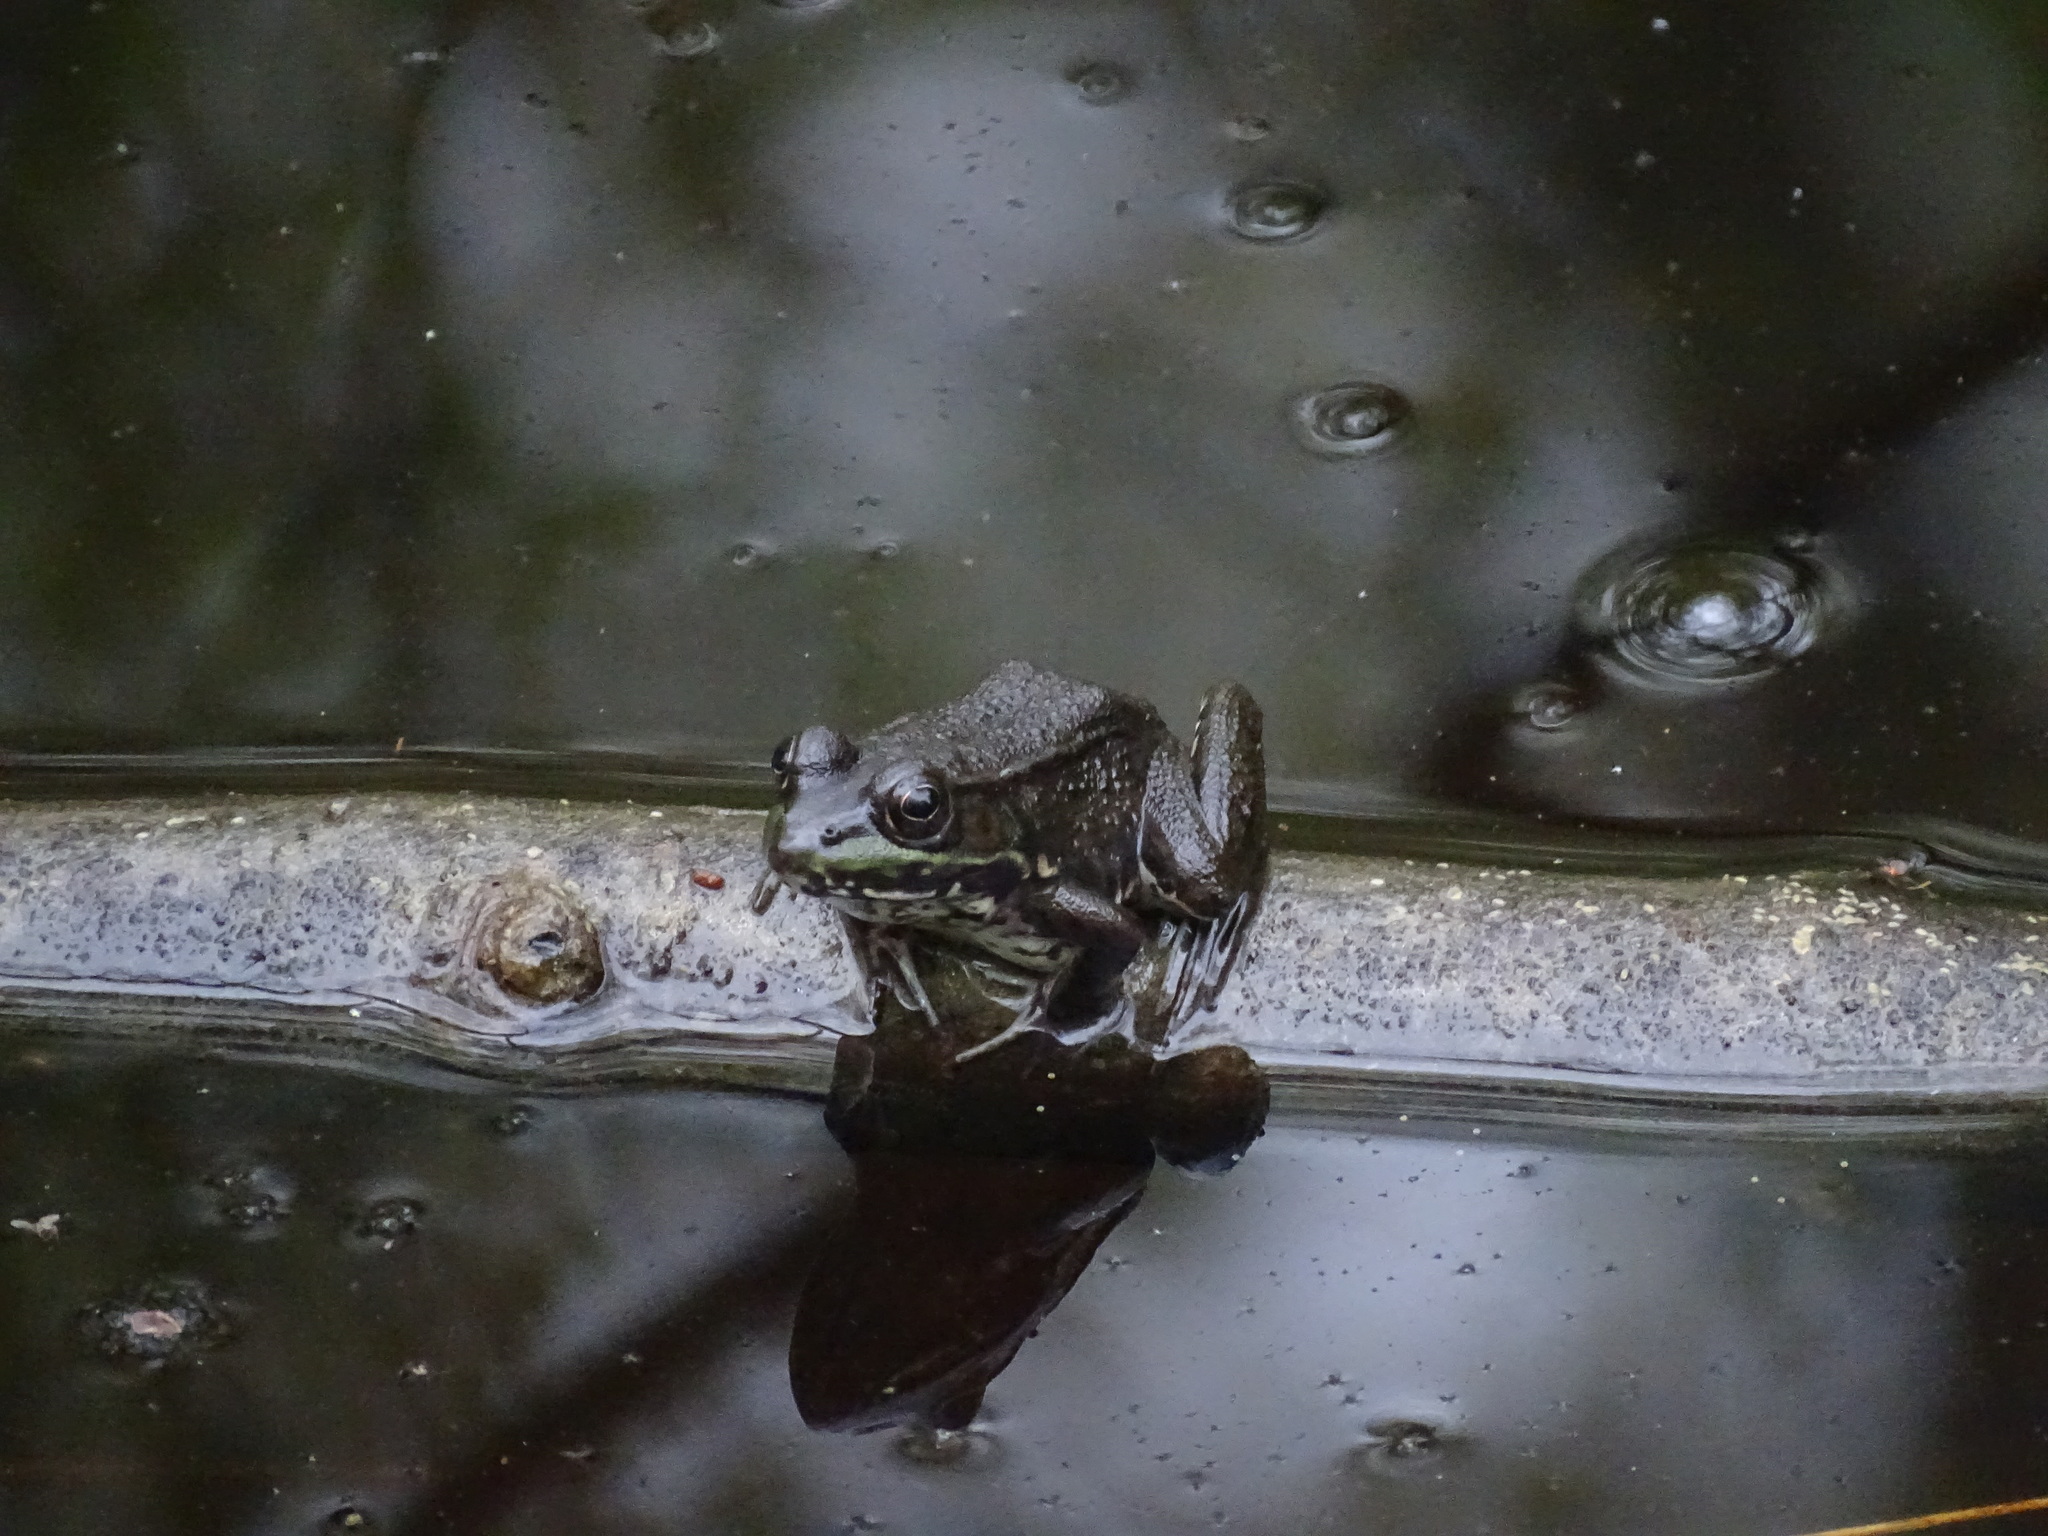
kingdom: Animalia
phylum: Chordata
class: Amphibia
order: Anura
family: Ranidae
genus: Lithobates
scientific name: Lithobates clamitans
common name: Green frog
